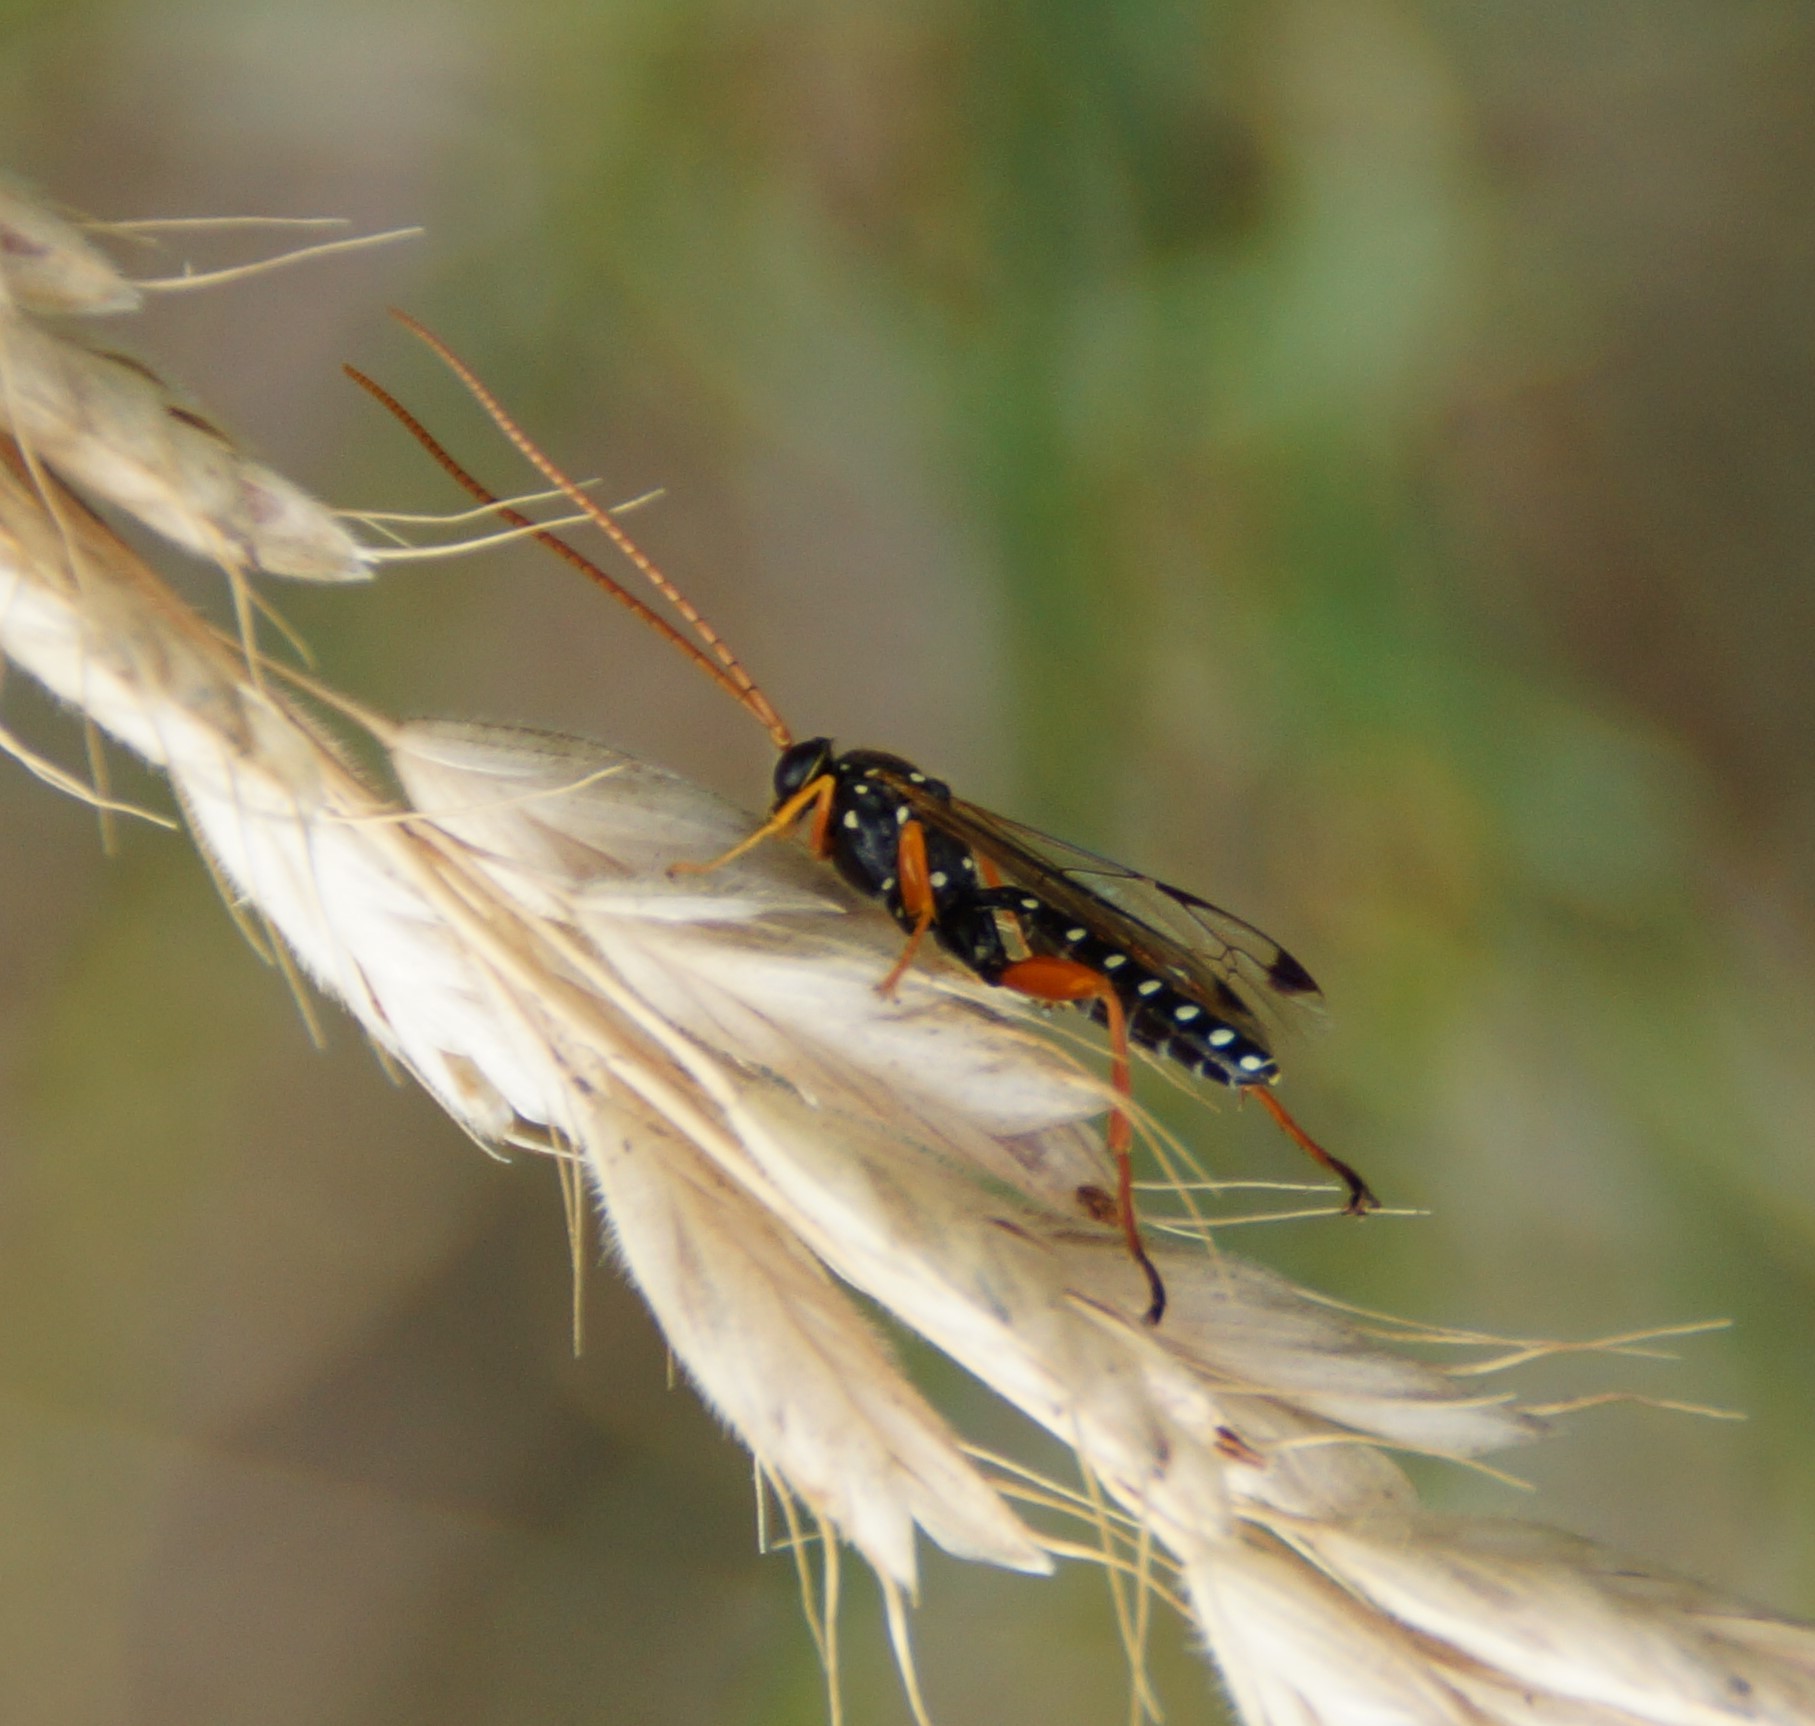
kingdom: Animalia
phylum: Arthropoda
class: Insecta
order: Hymenoptera
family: Ichneumonidae
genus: Echthromorpha
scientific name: Echthromorpha intricatoria
